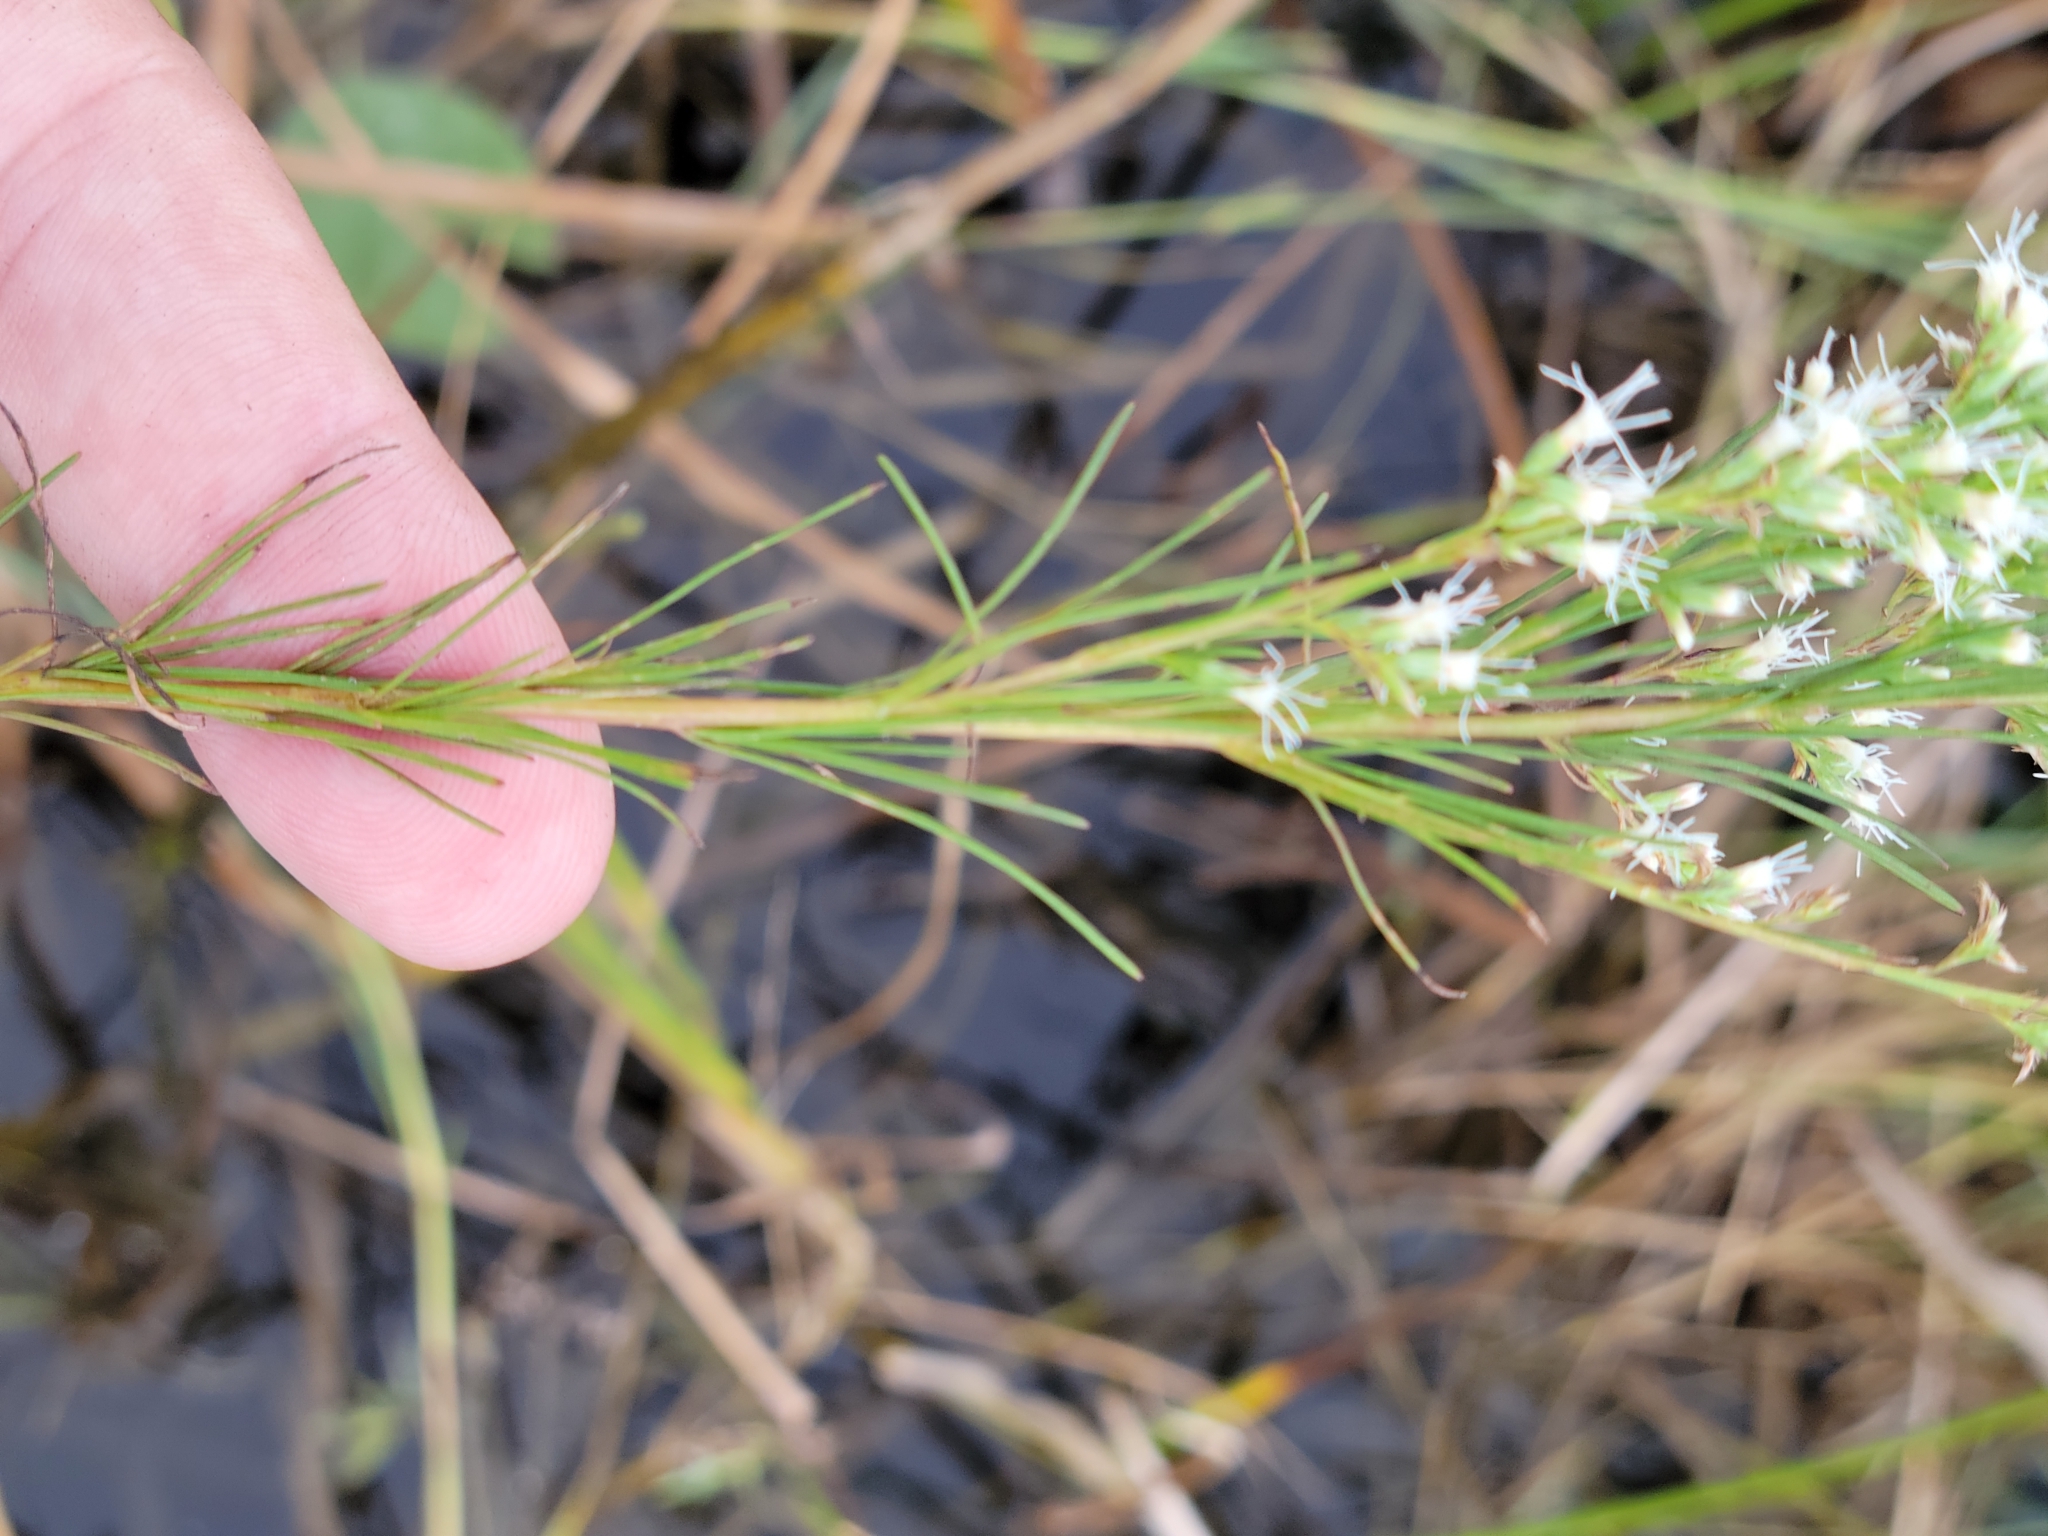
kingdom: Plantae
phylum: Tracheophyta
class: Magnoliopsida
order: Asterales
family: Asteraceae
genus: Eupatorium
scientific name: Eupatorium leptophyllum
